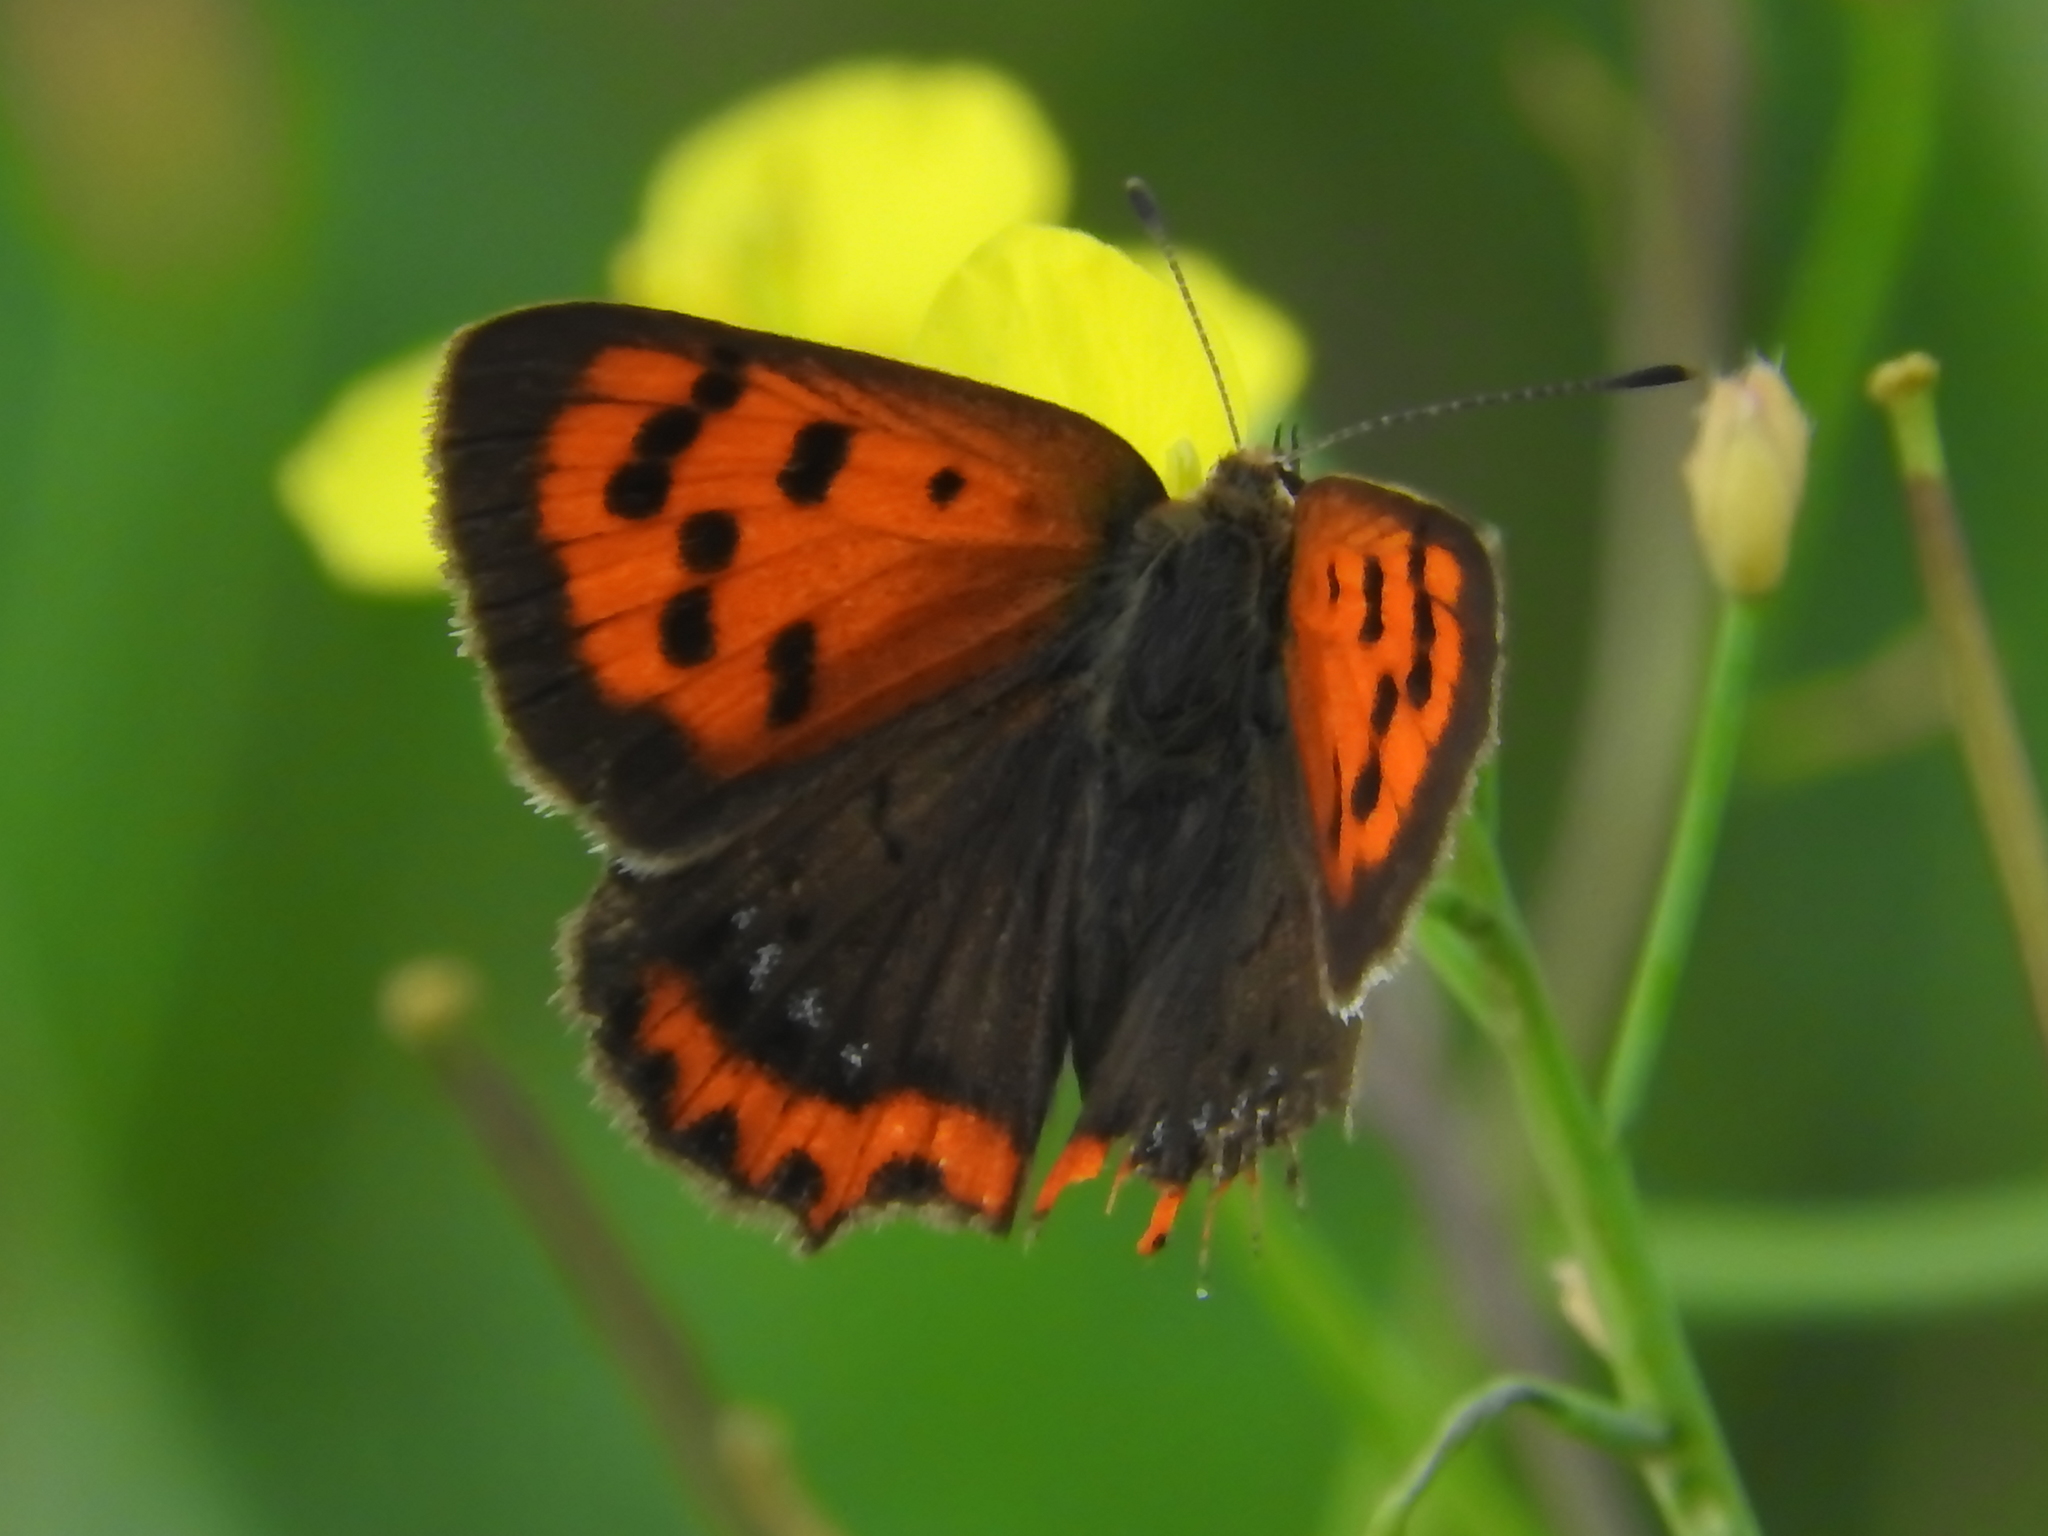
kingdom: Animalia
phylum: Arthropoda
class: Insecta
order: Lepidoptera
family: Lycaenidae
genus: Lycaena
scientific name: Lycaena phlaeas
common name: Small copper
